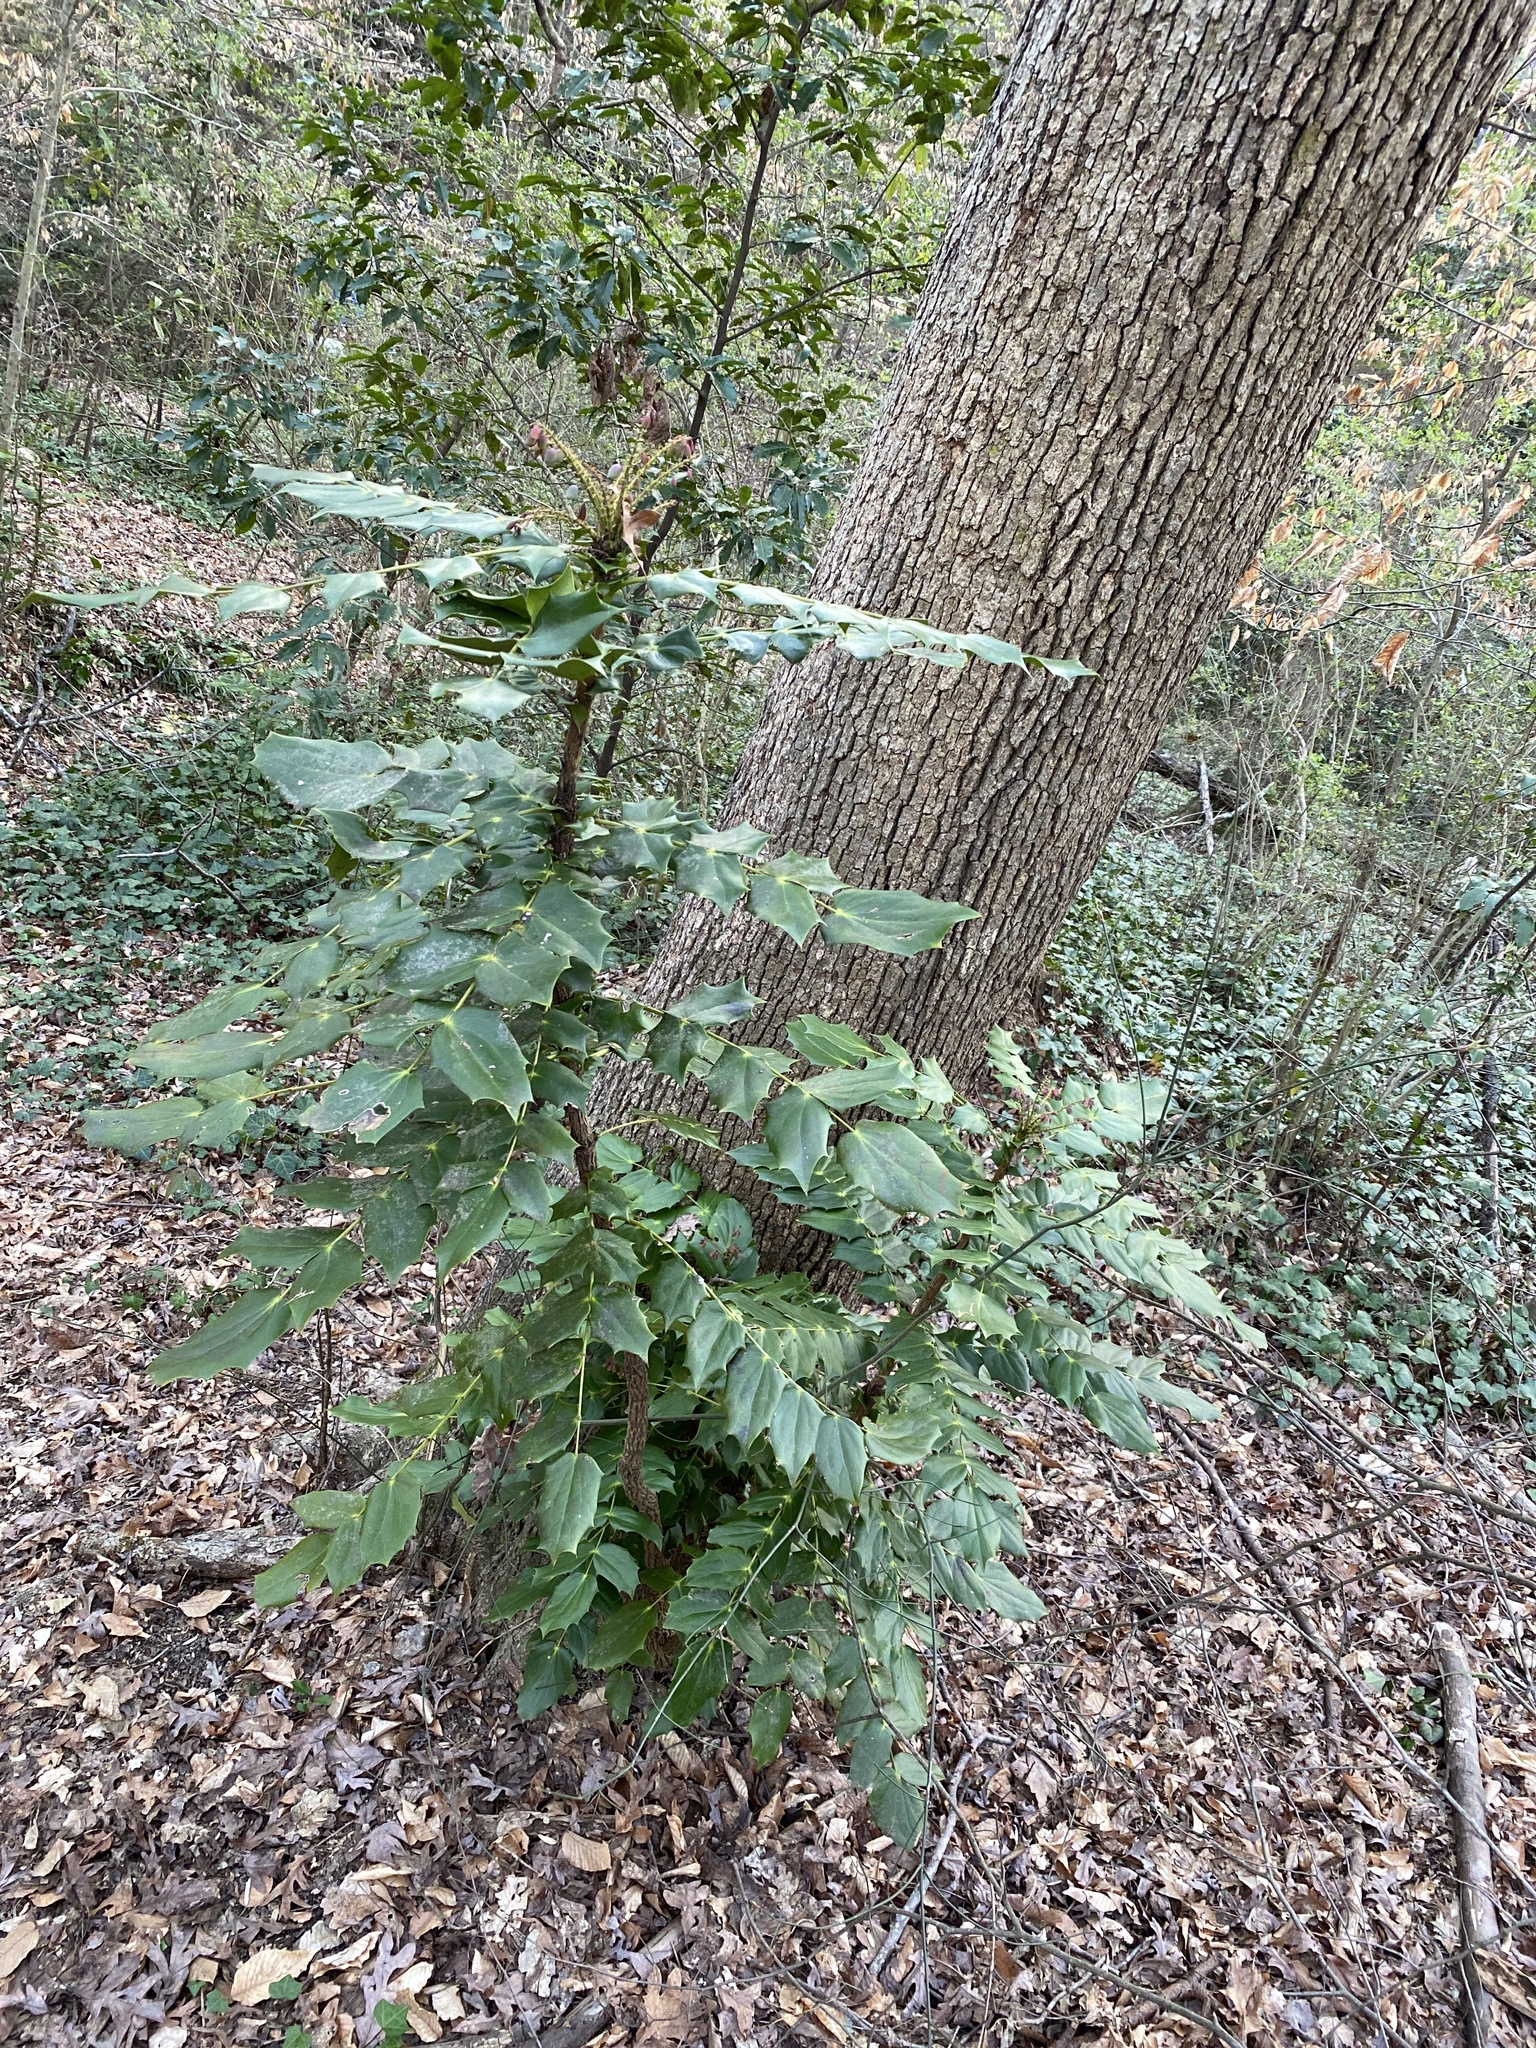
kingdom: Plantae
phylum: Tracheophyta
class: Magnoliopsida
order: Ranunculales
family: Berberidaceae
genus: Mahonia
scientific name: Mahonia bealei
